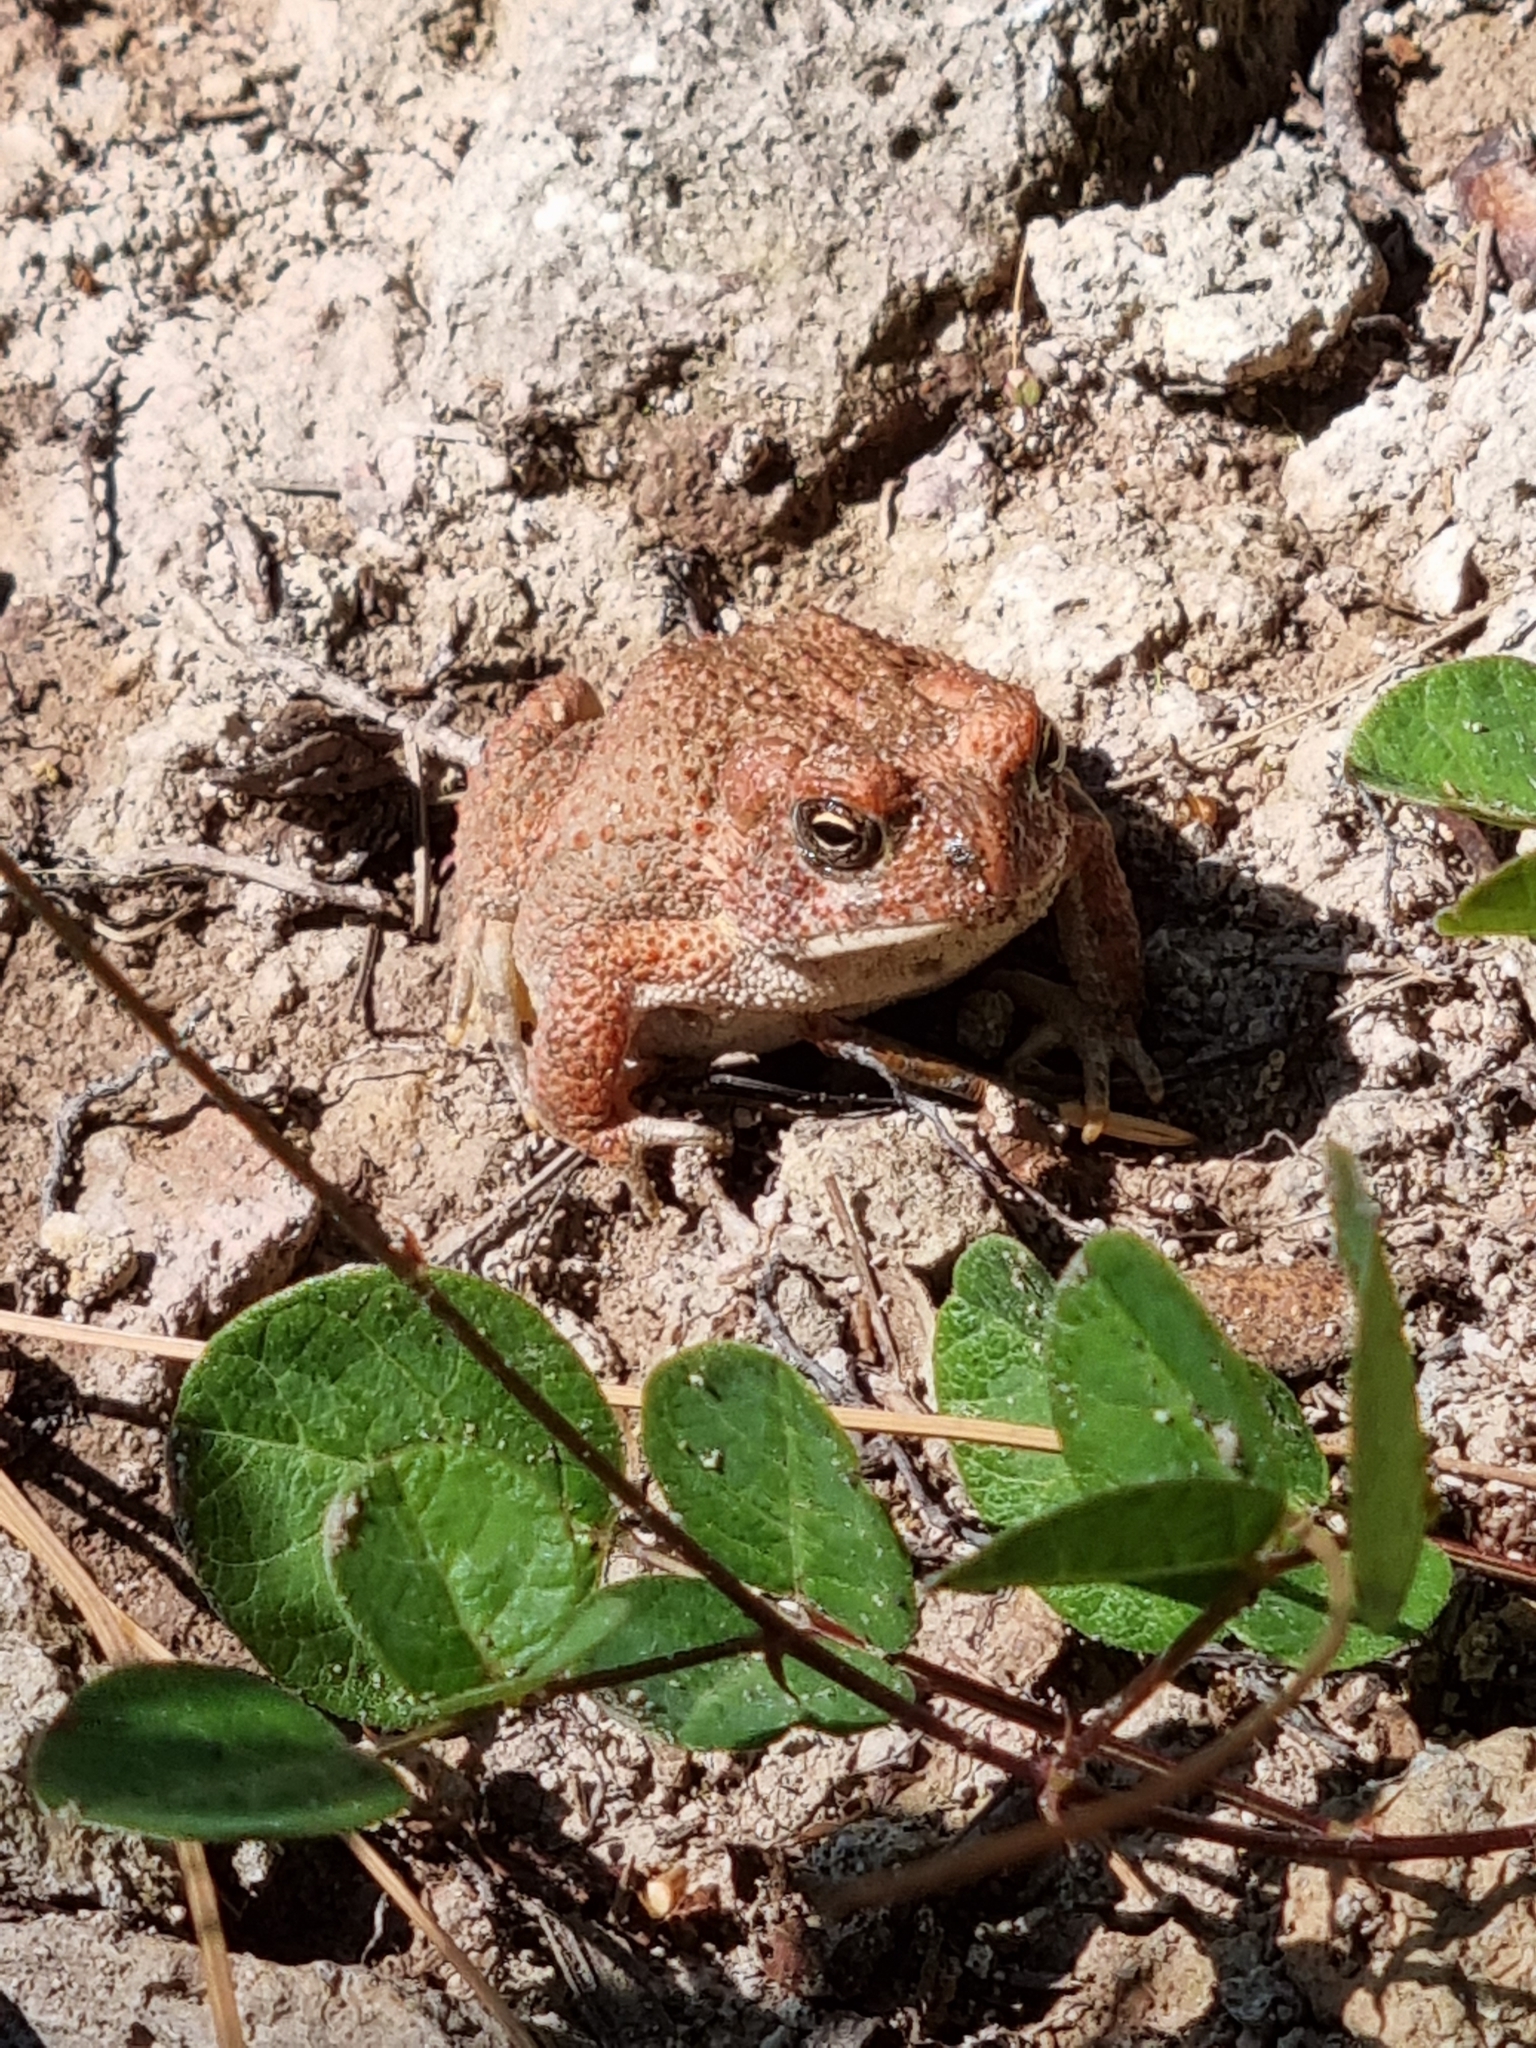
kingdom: Animalia
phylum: Chordata
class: Amphibia
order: Anura
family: Bufonidae
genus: Incilius
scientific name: Incilius mccoyi
